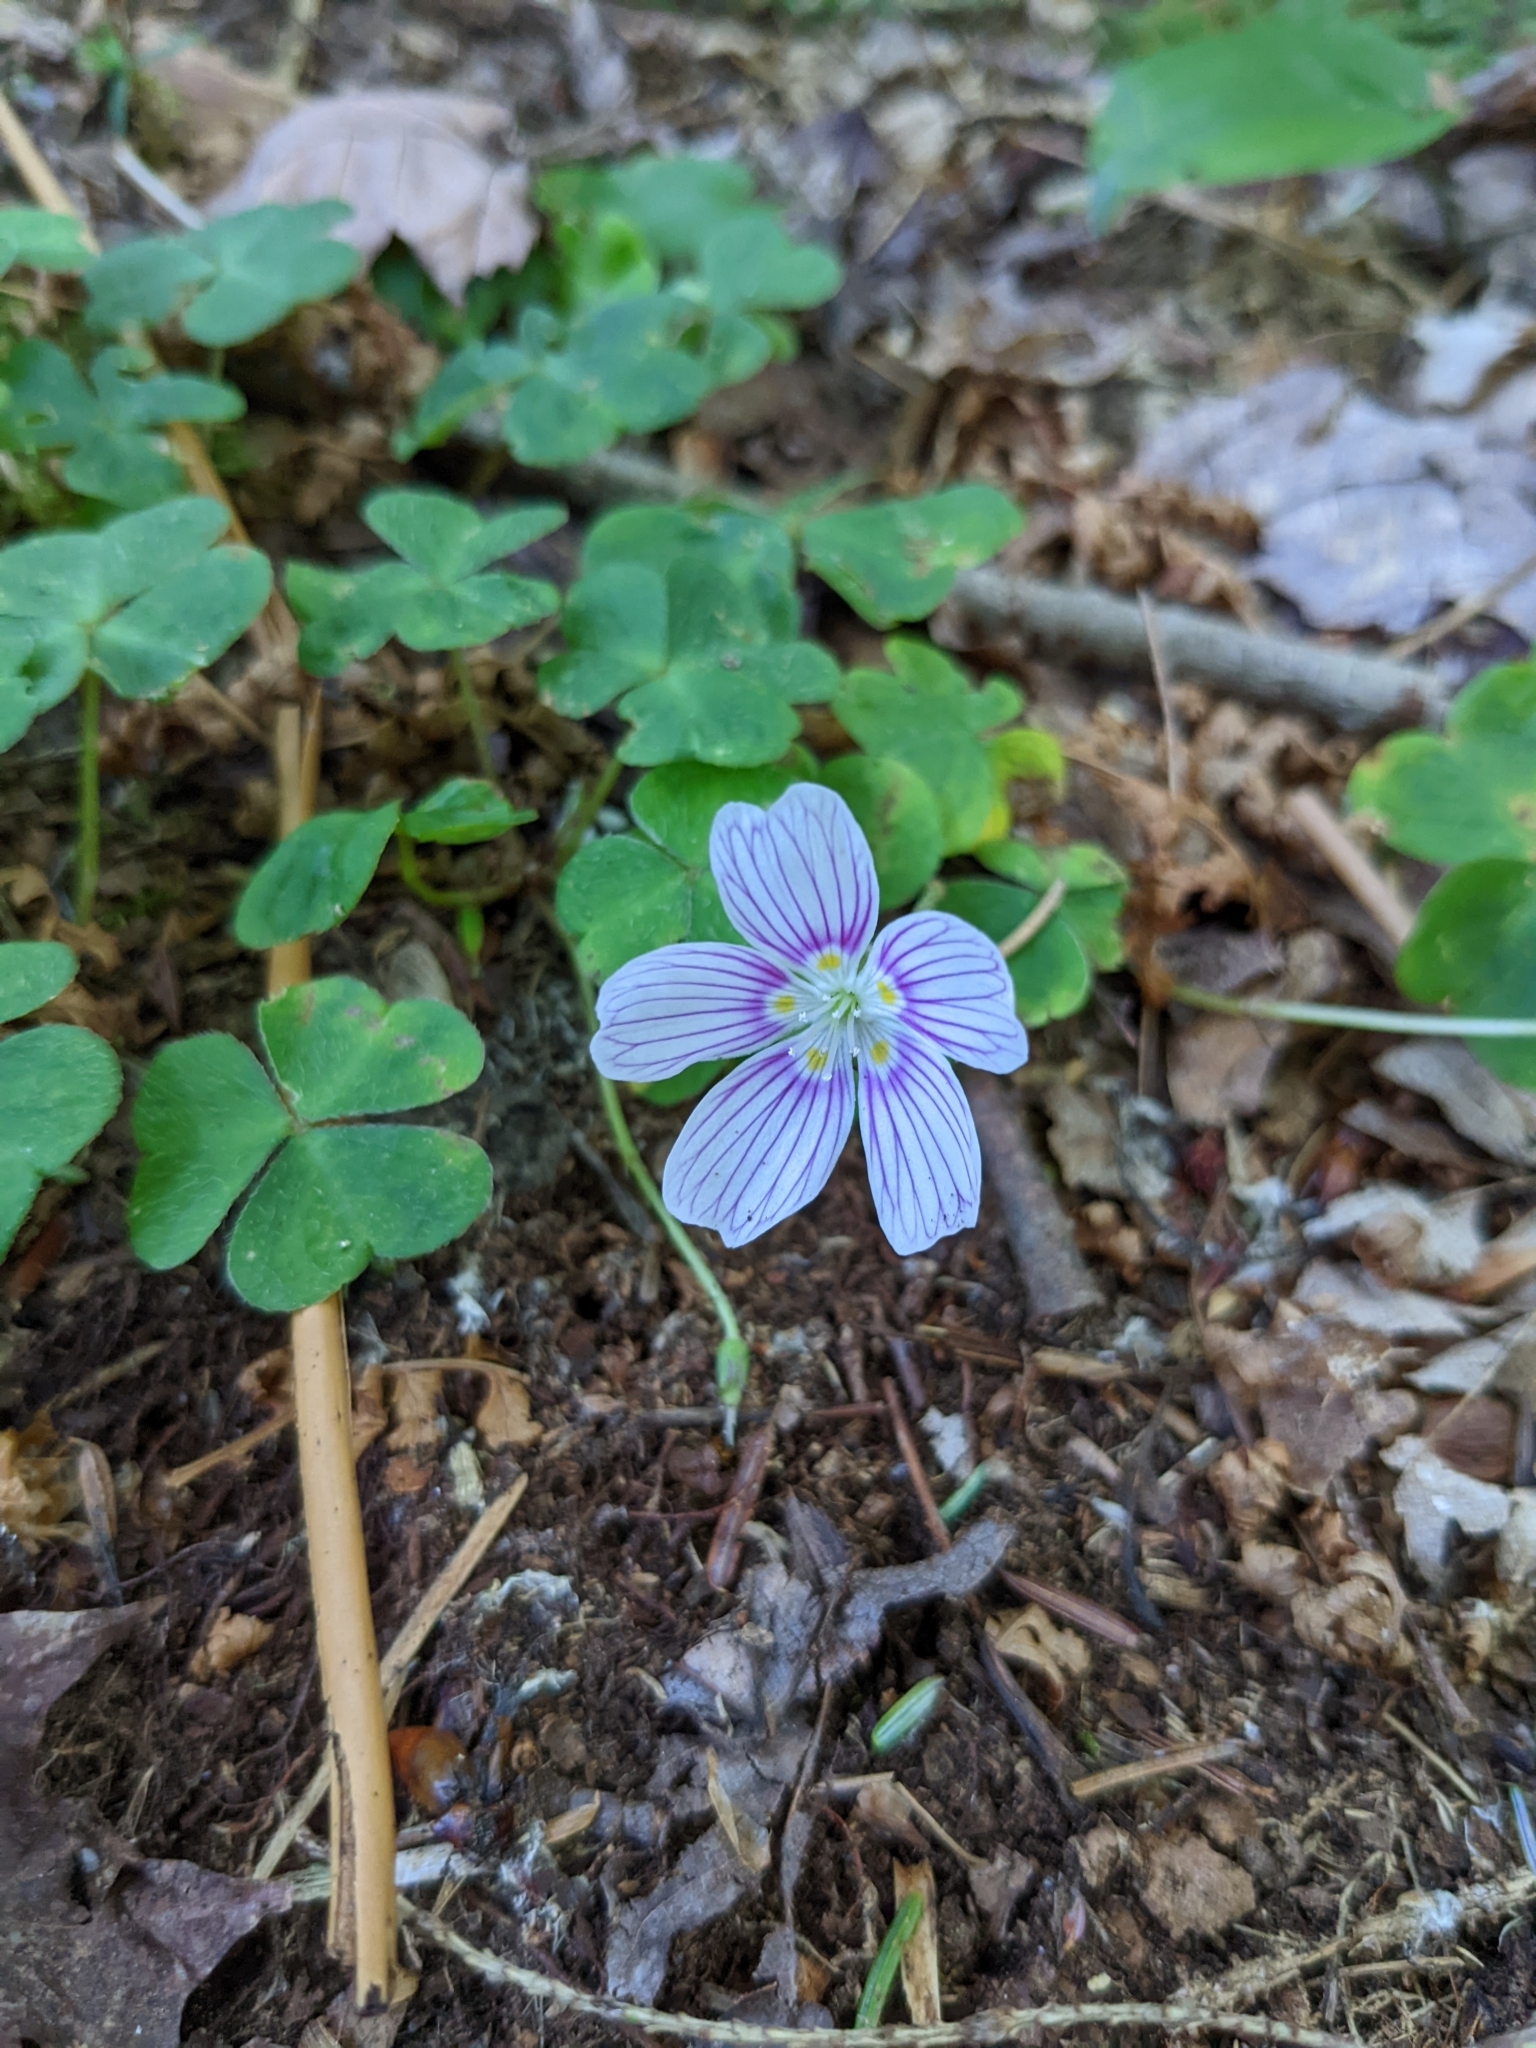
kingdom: Plantae
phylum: Tracheophyta
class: Magnoliopsida
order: Oxalidales
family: Oxalidaceae
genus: Oxalis
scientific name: Oxalis montana
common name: American wood-sorrel
